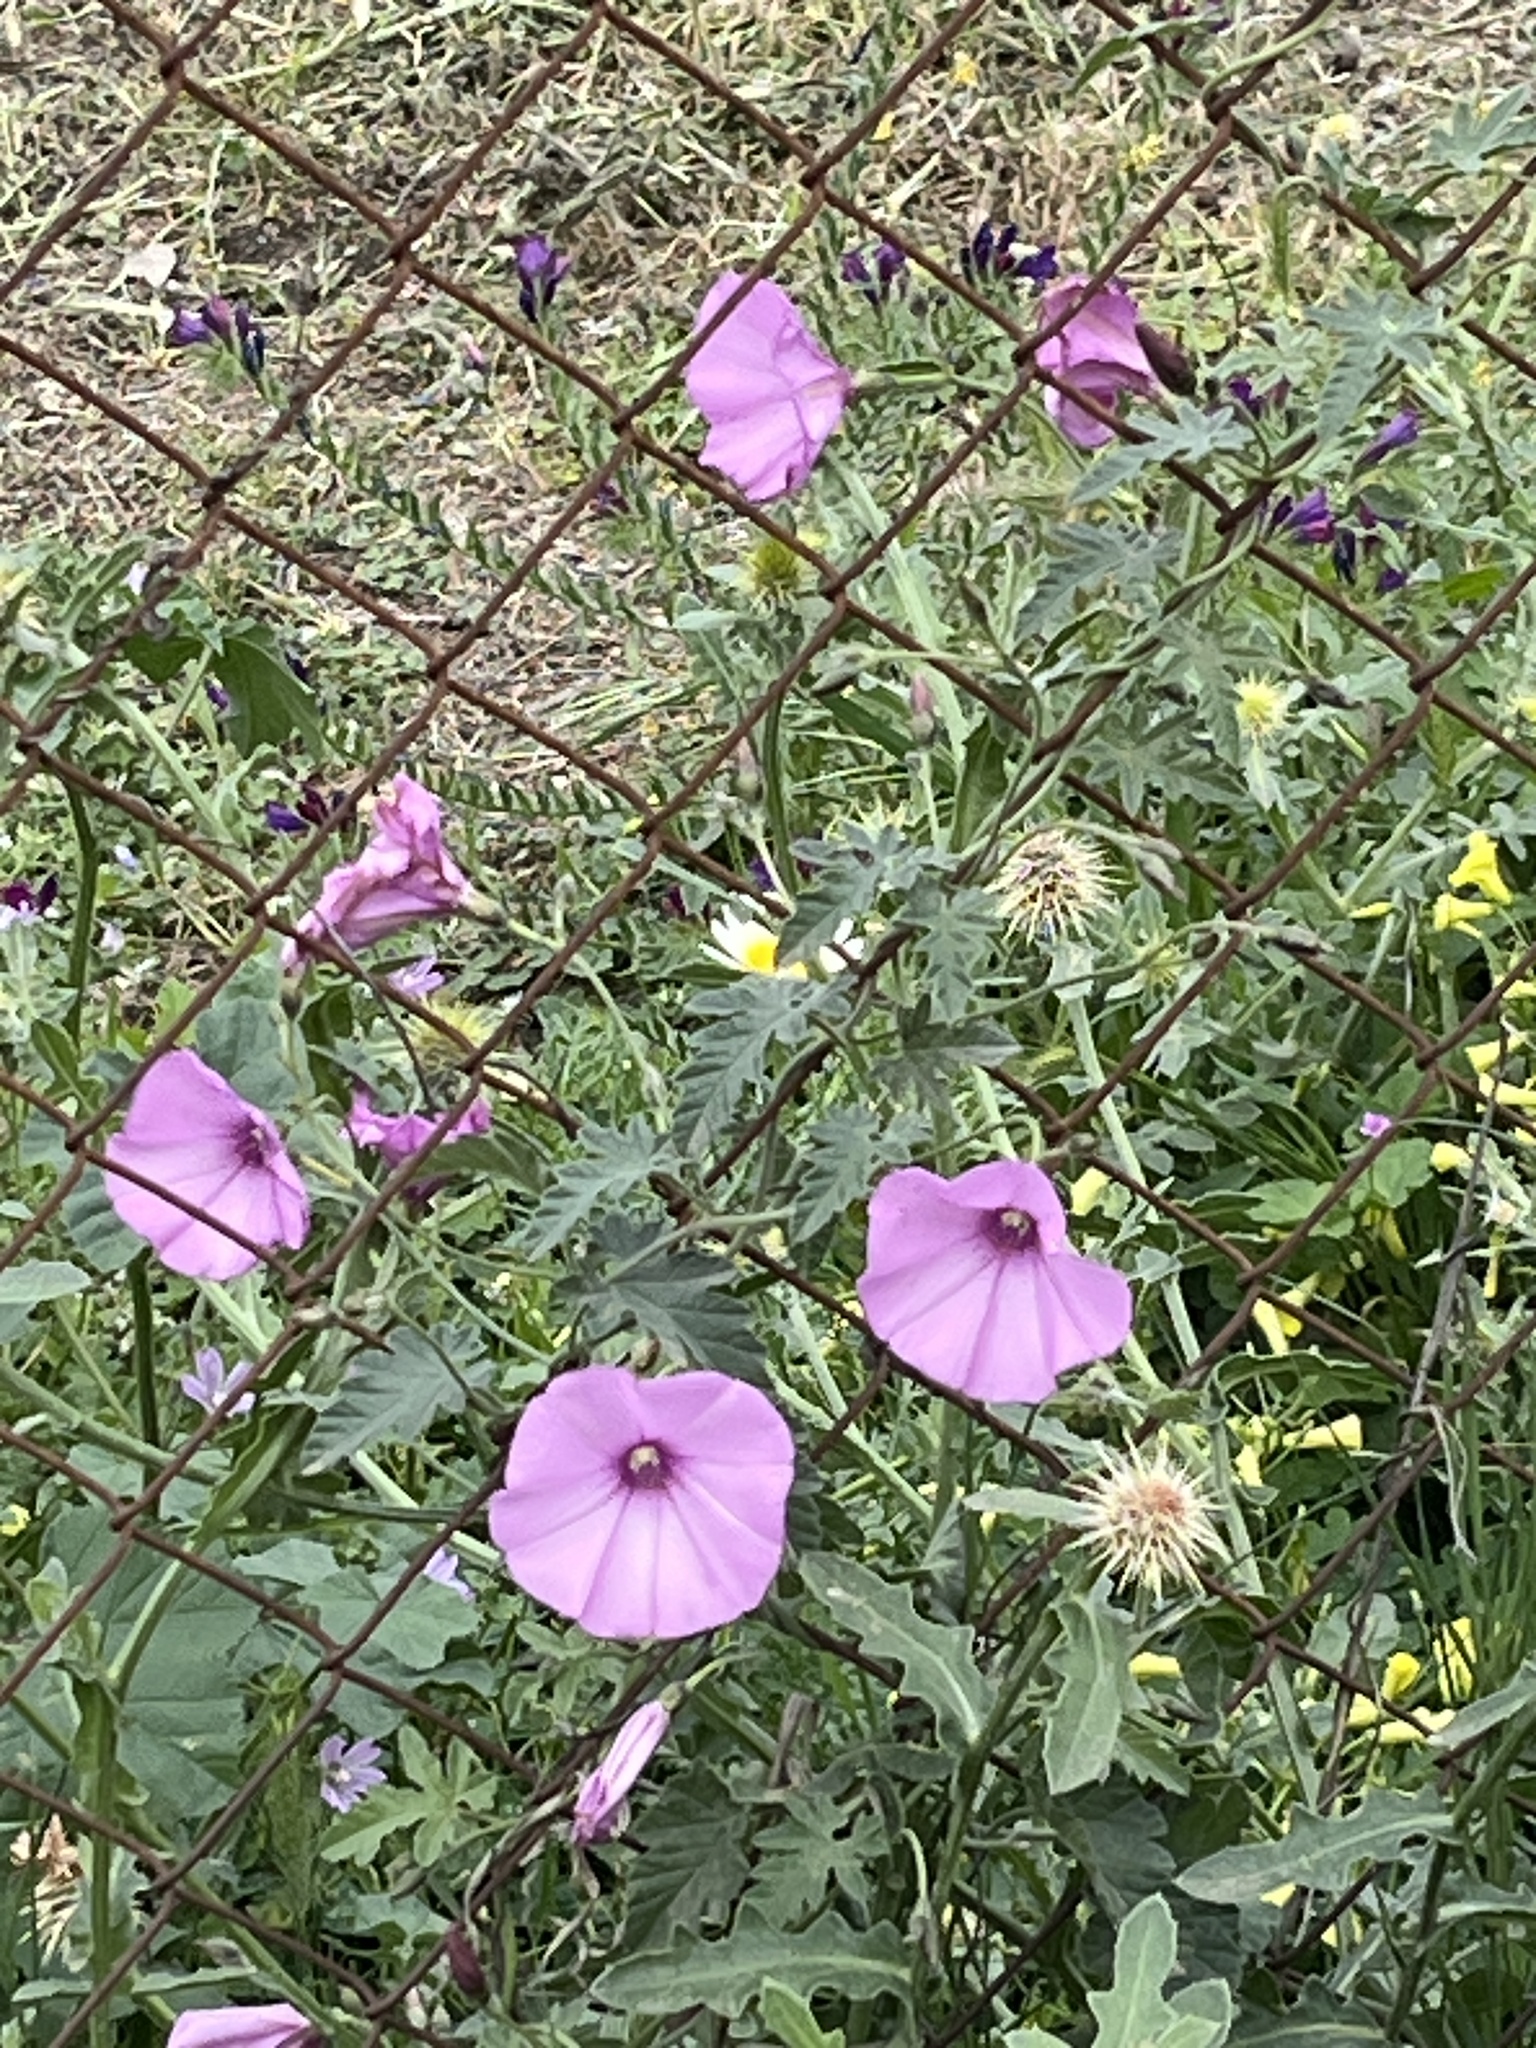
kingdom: Plantae
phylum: Tracheophyta
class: Magnoliopsida
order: Solanales
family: Convolvulaceae
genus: Convolvulus
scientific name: Convolvulus althaeoides
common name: Mallow bindweed
